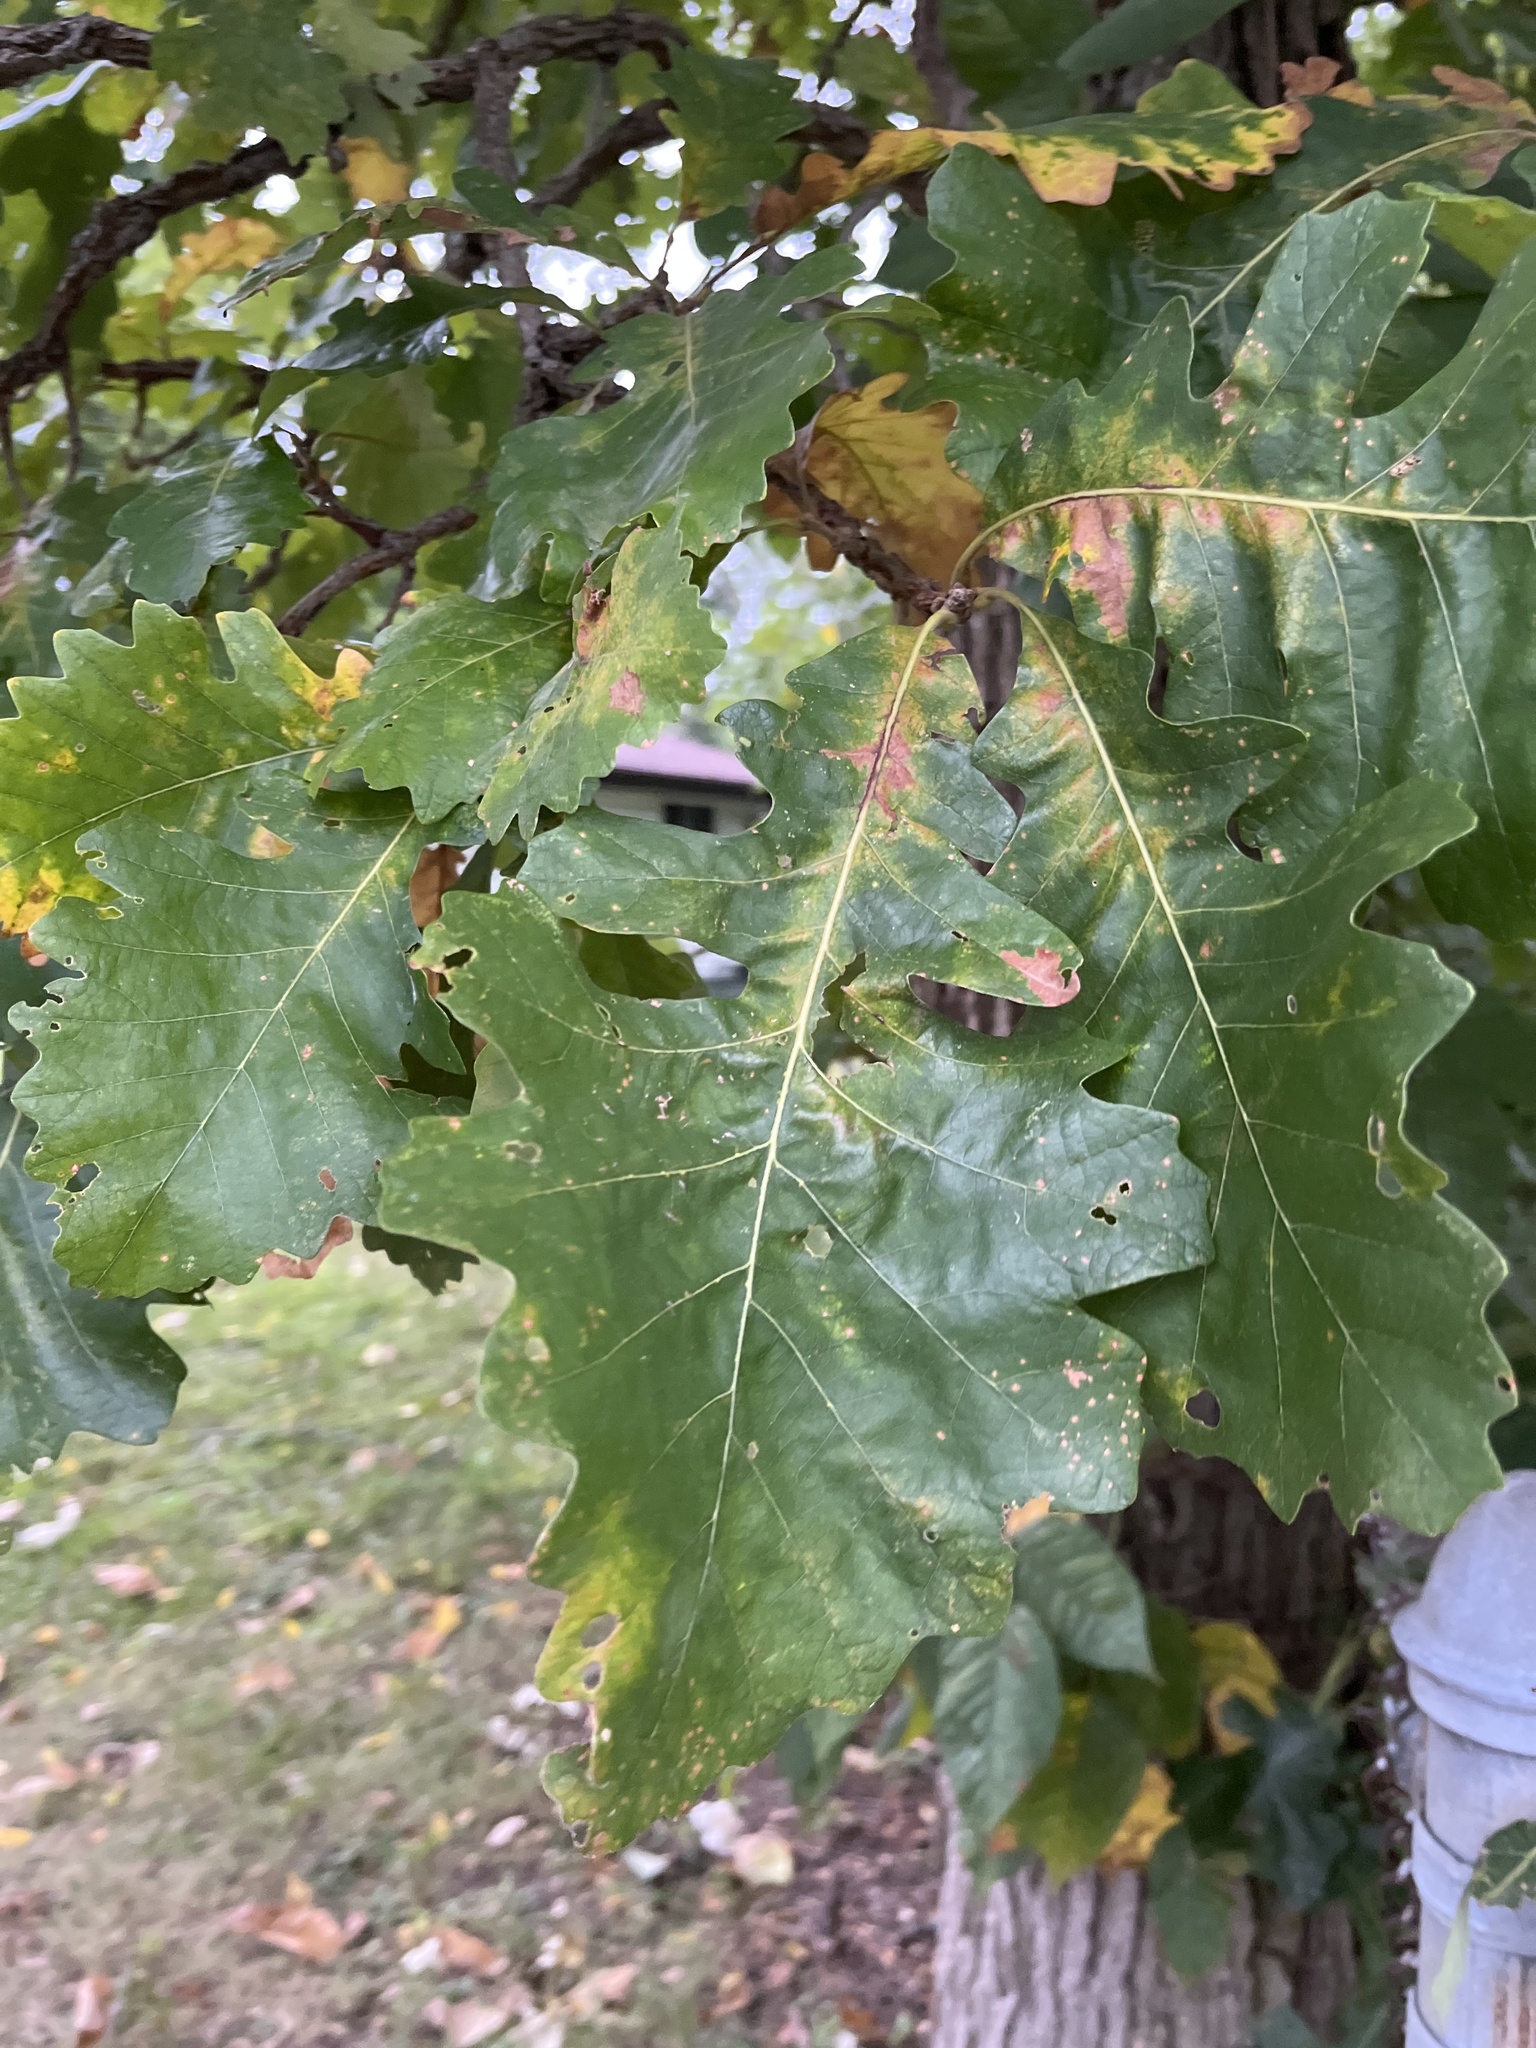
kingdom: Plantae
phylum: Tracheophyta
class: Magnoliopsida
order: Fagales
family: Fagaceae
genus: Quercus
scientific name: Quercus macrocarpa
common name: Bur oak
